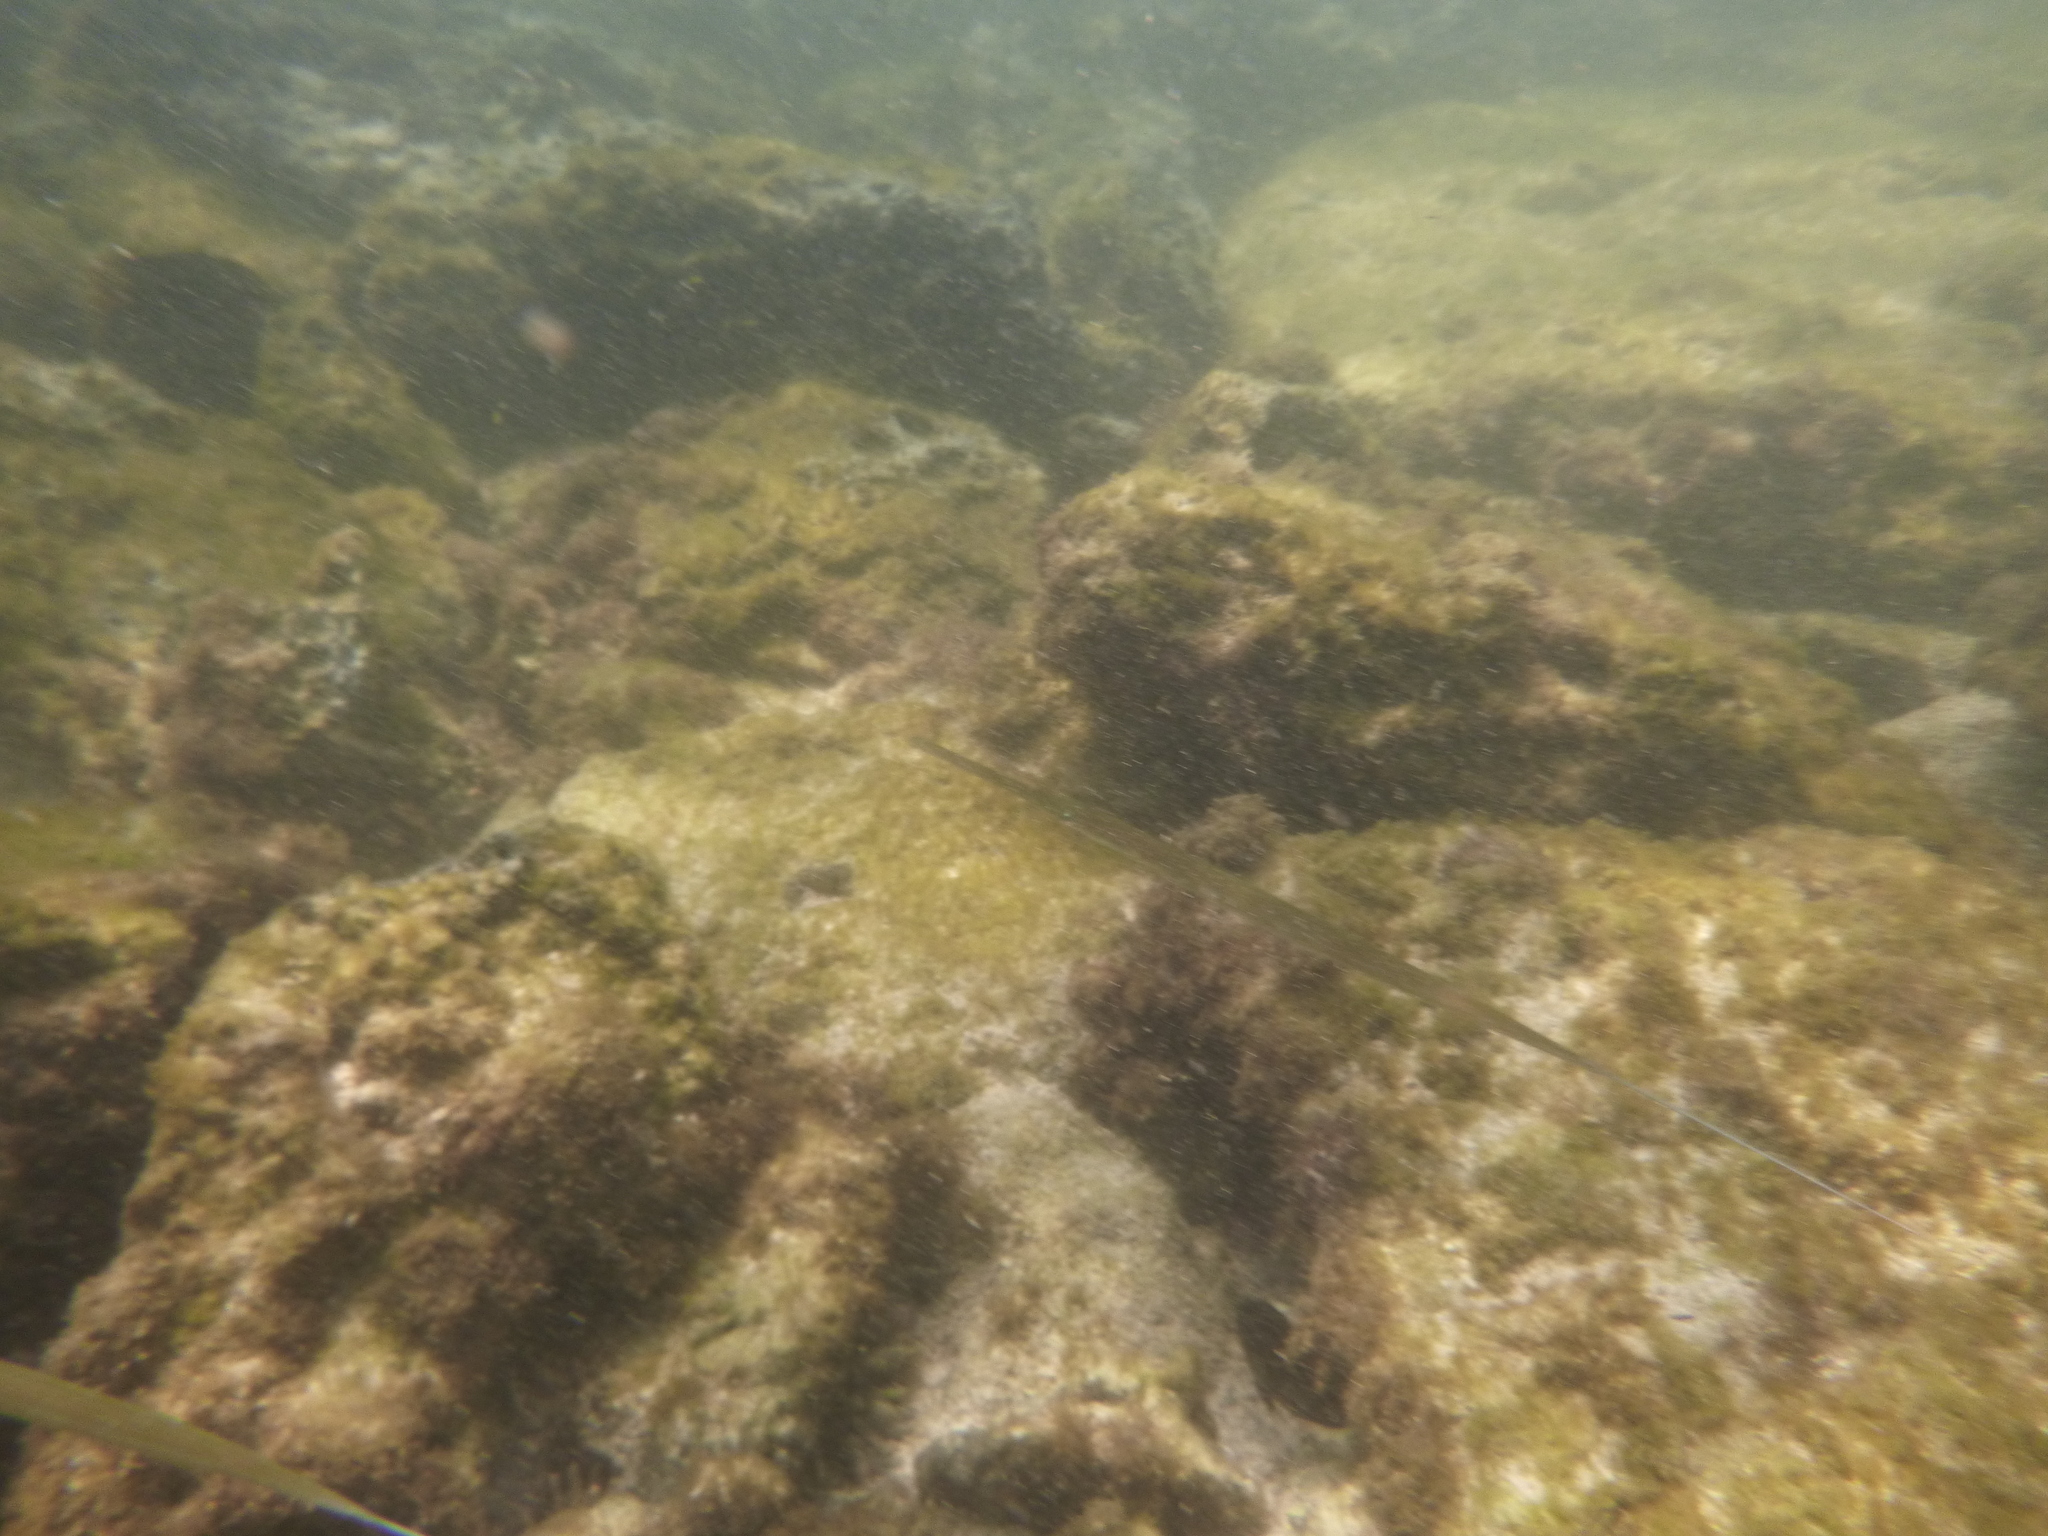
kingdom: Animalia
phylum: Chordata
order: Syngnathiformes
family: Fistulariidae
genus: Fistularia
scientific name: Fistularia commersonii
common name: Bluespotted cornetfish
